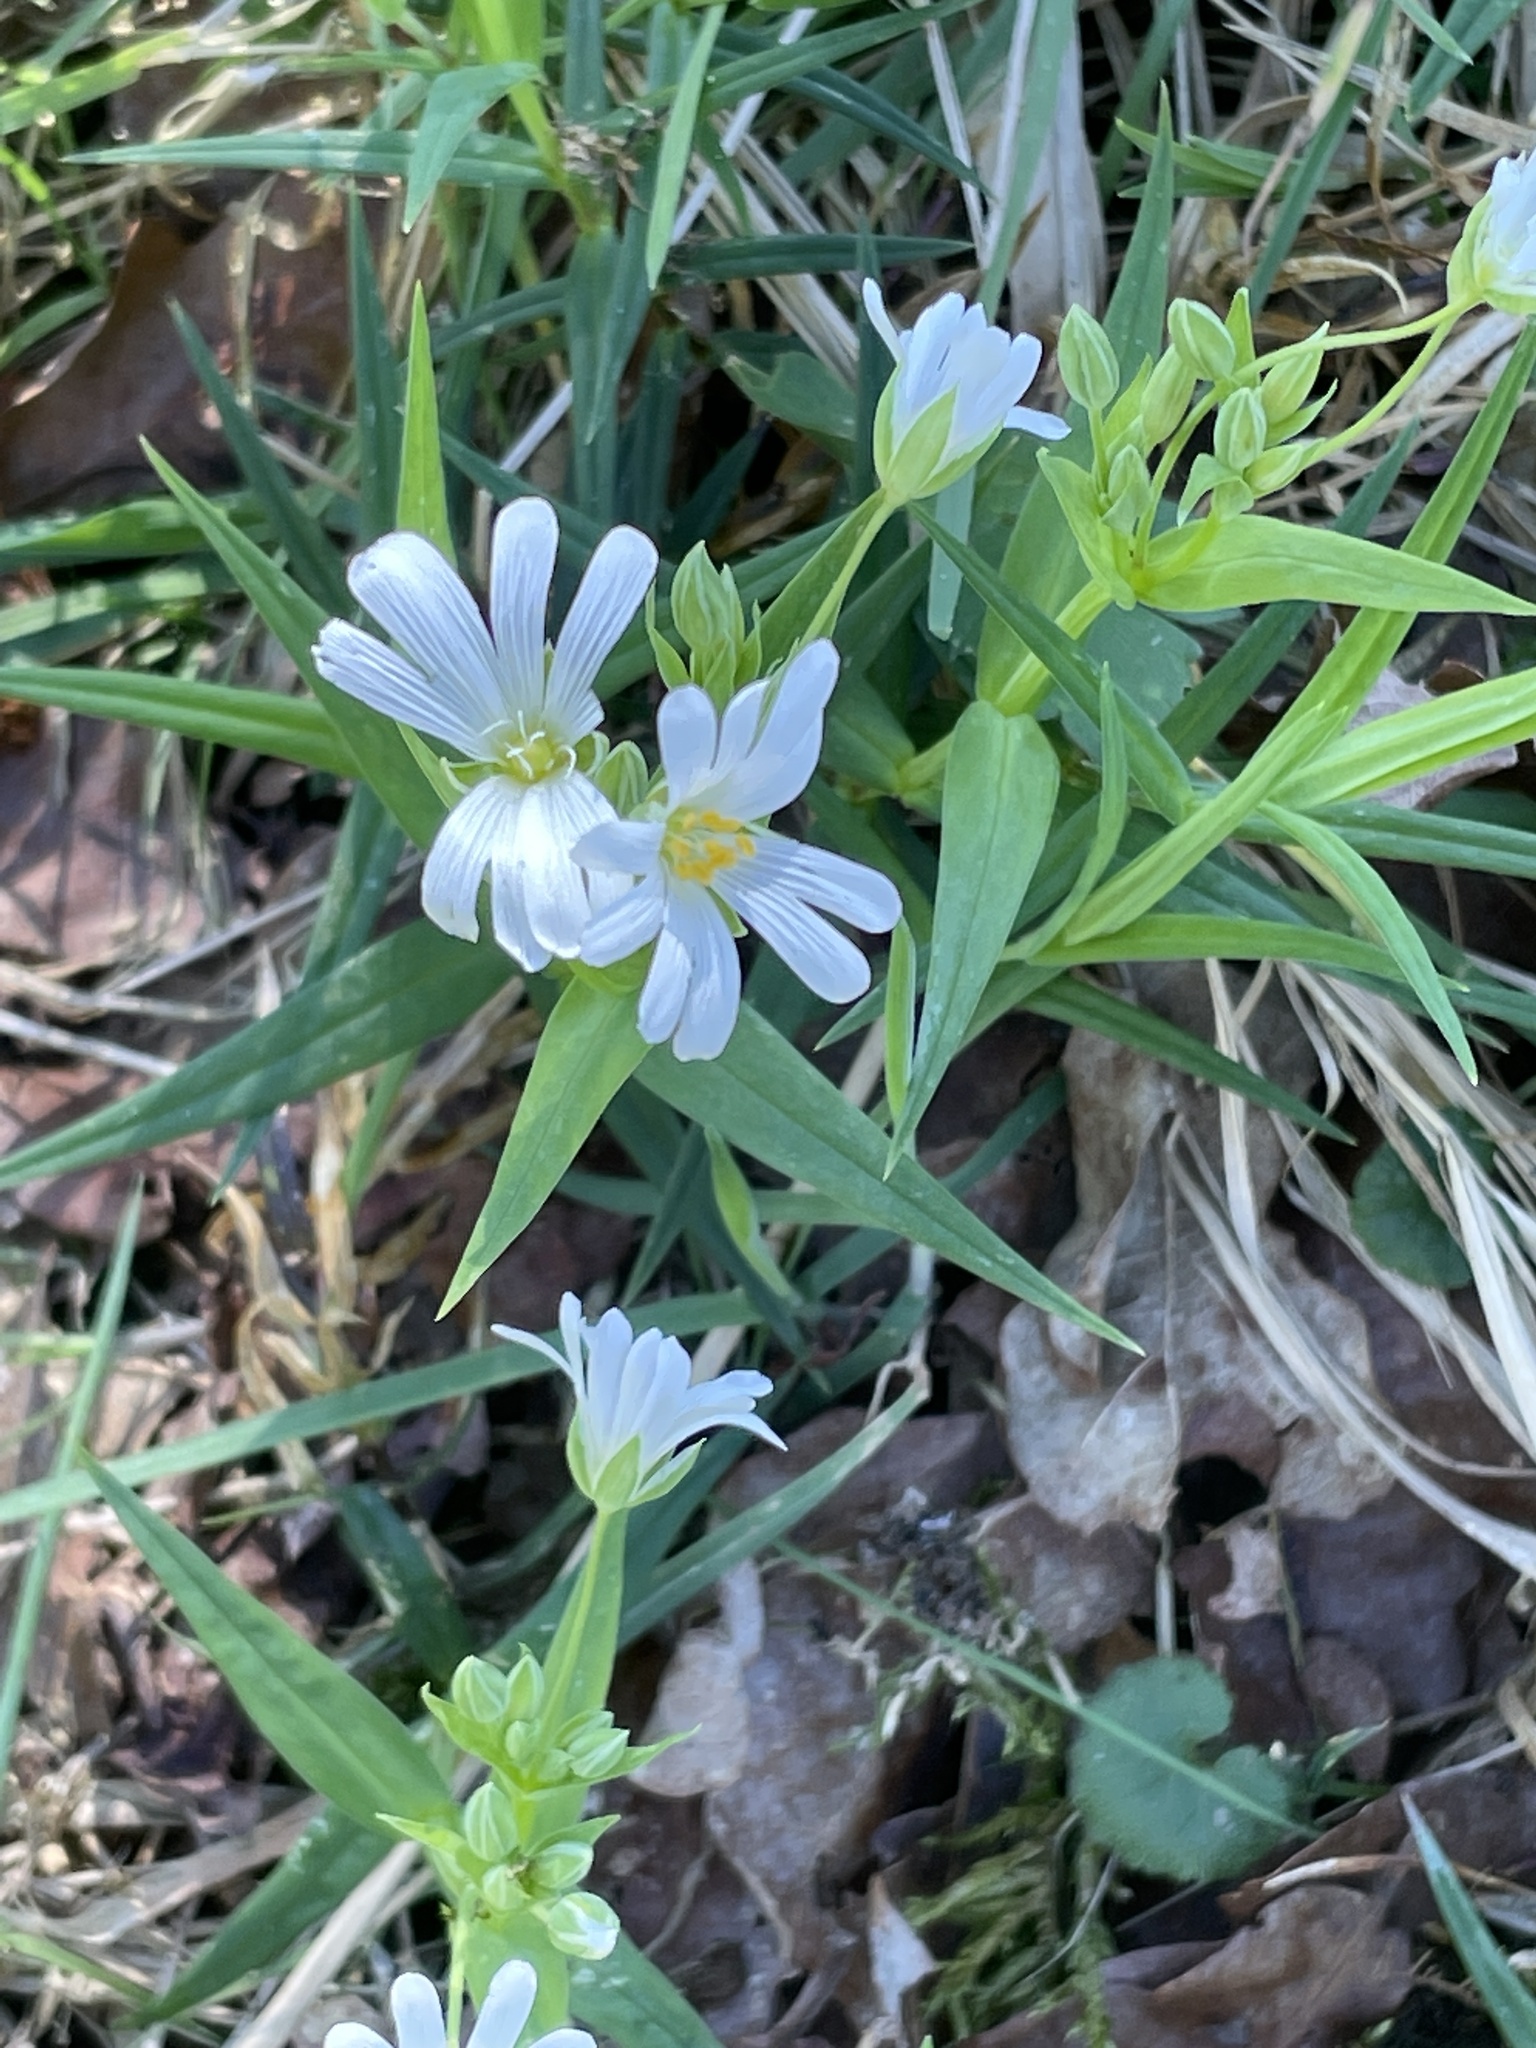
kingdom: Plantae
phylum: Tracheophyta
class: Magnoliopsida
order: Caryophyllales
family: Caryophyllaceae
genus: Rabelera
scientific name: Rabelera holostea
